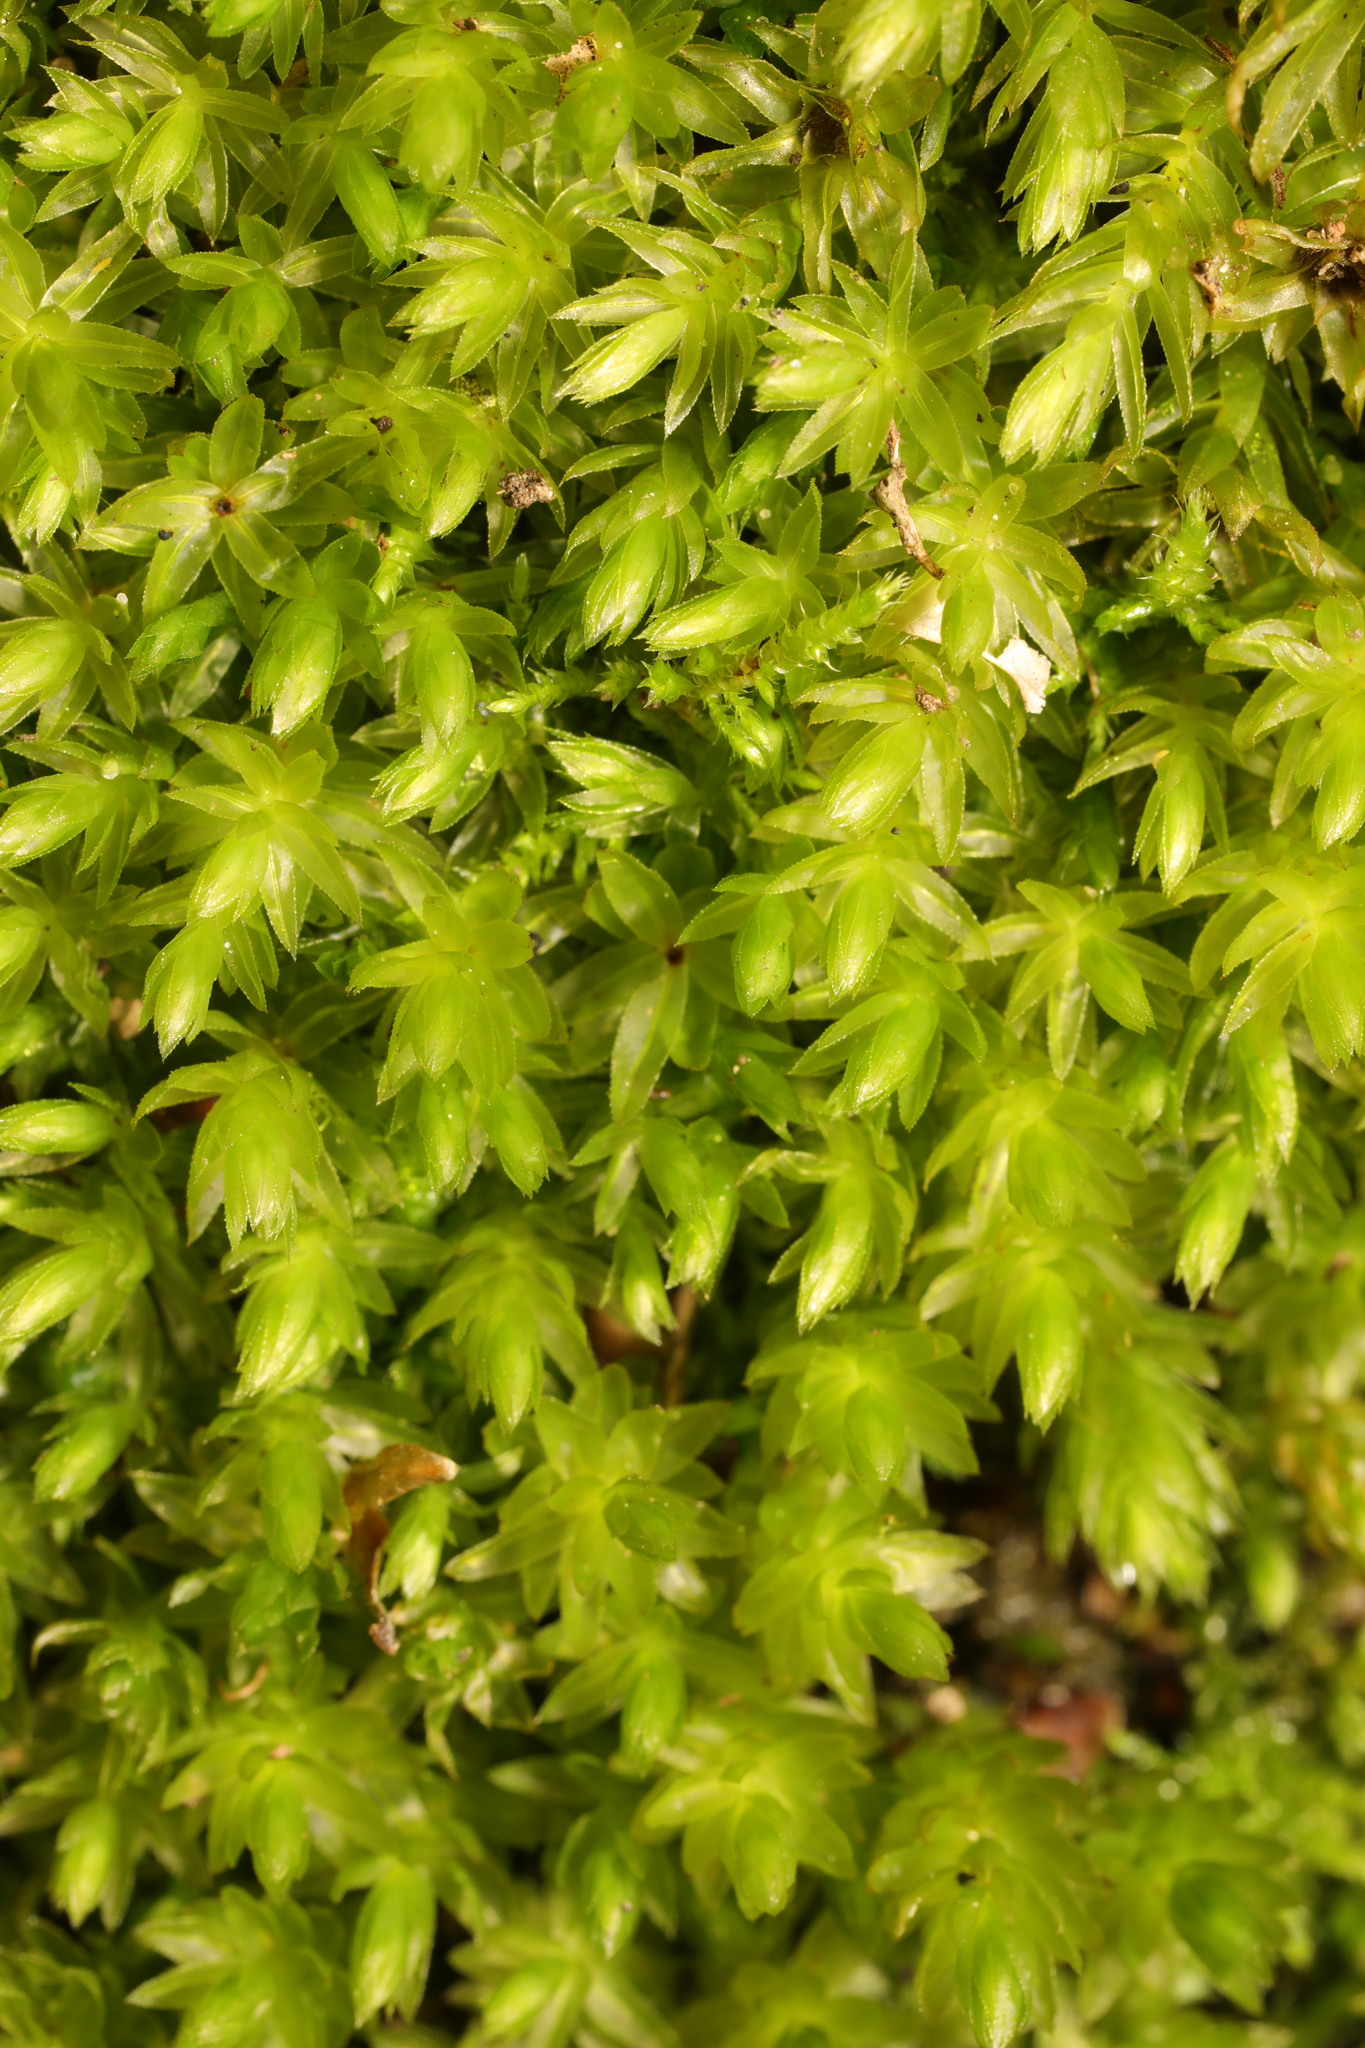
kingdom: Plantae
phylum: Bryophyta
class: Bryopsida
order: Bryales
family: Mniaceae
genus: Mnium
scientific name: Mnium hornum
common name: Swan's-neck leafy moss
